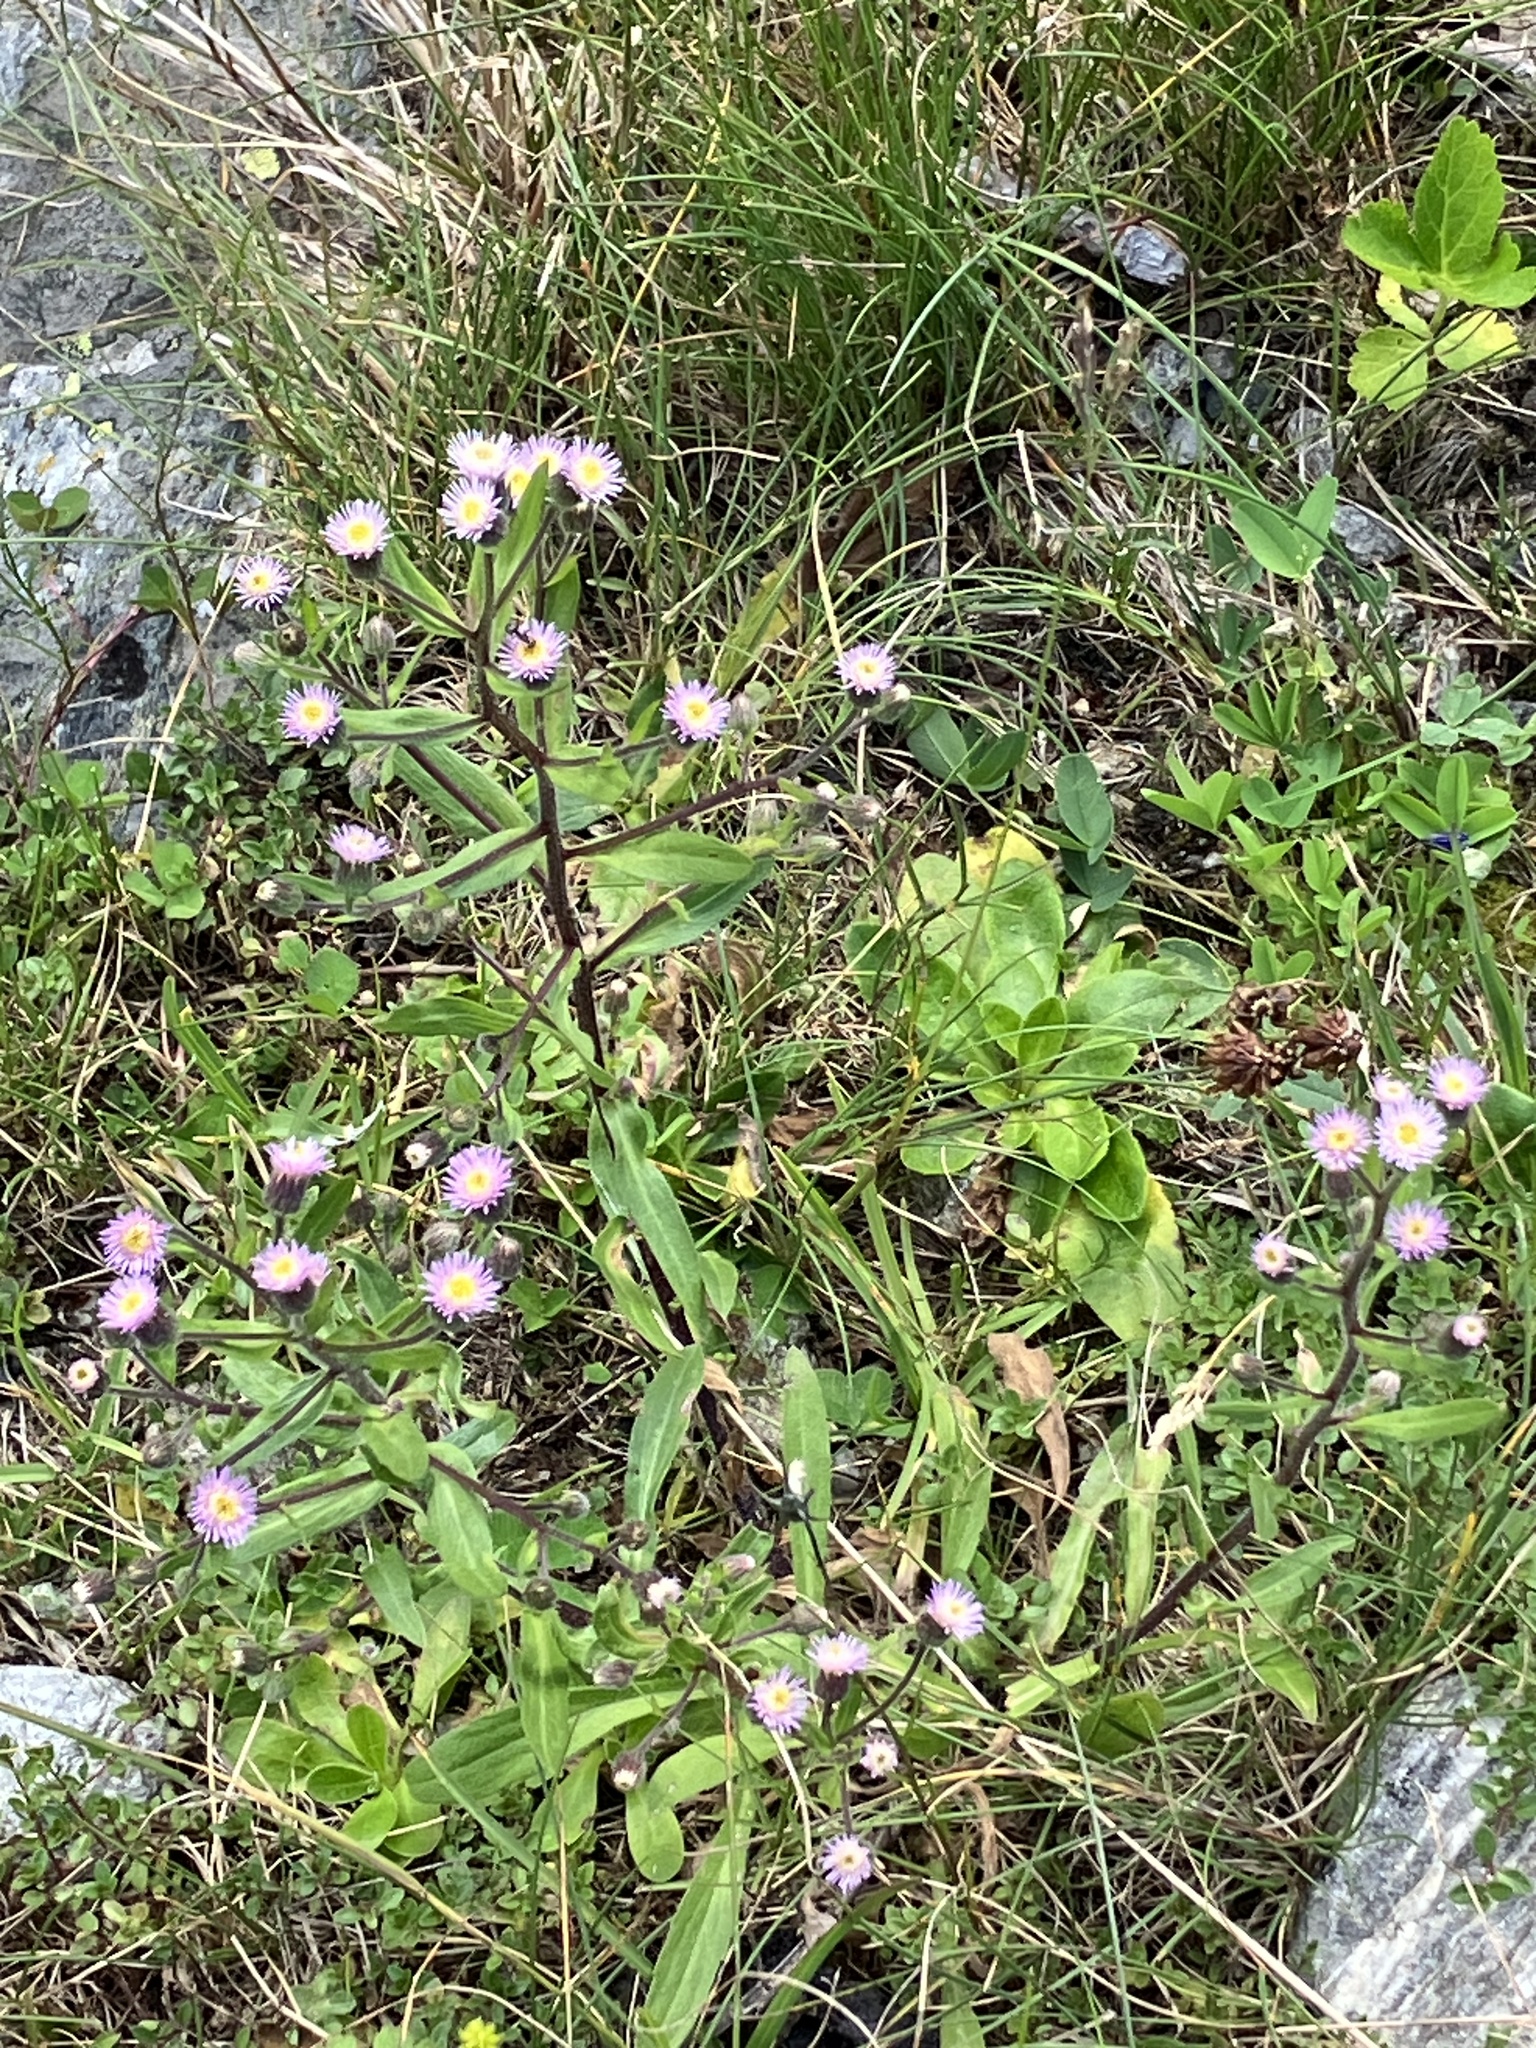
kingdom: Plantae
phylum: Tracheophyta
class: Magnoliopsida
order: Asterales
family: Asteraceae
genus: Erigeron
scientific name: Erigeron acris
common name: Blue fleabane
